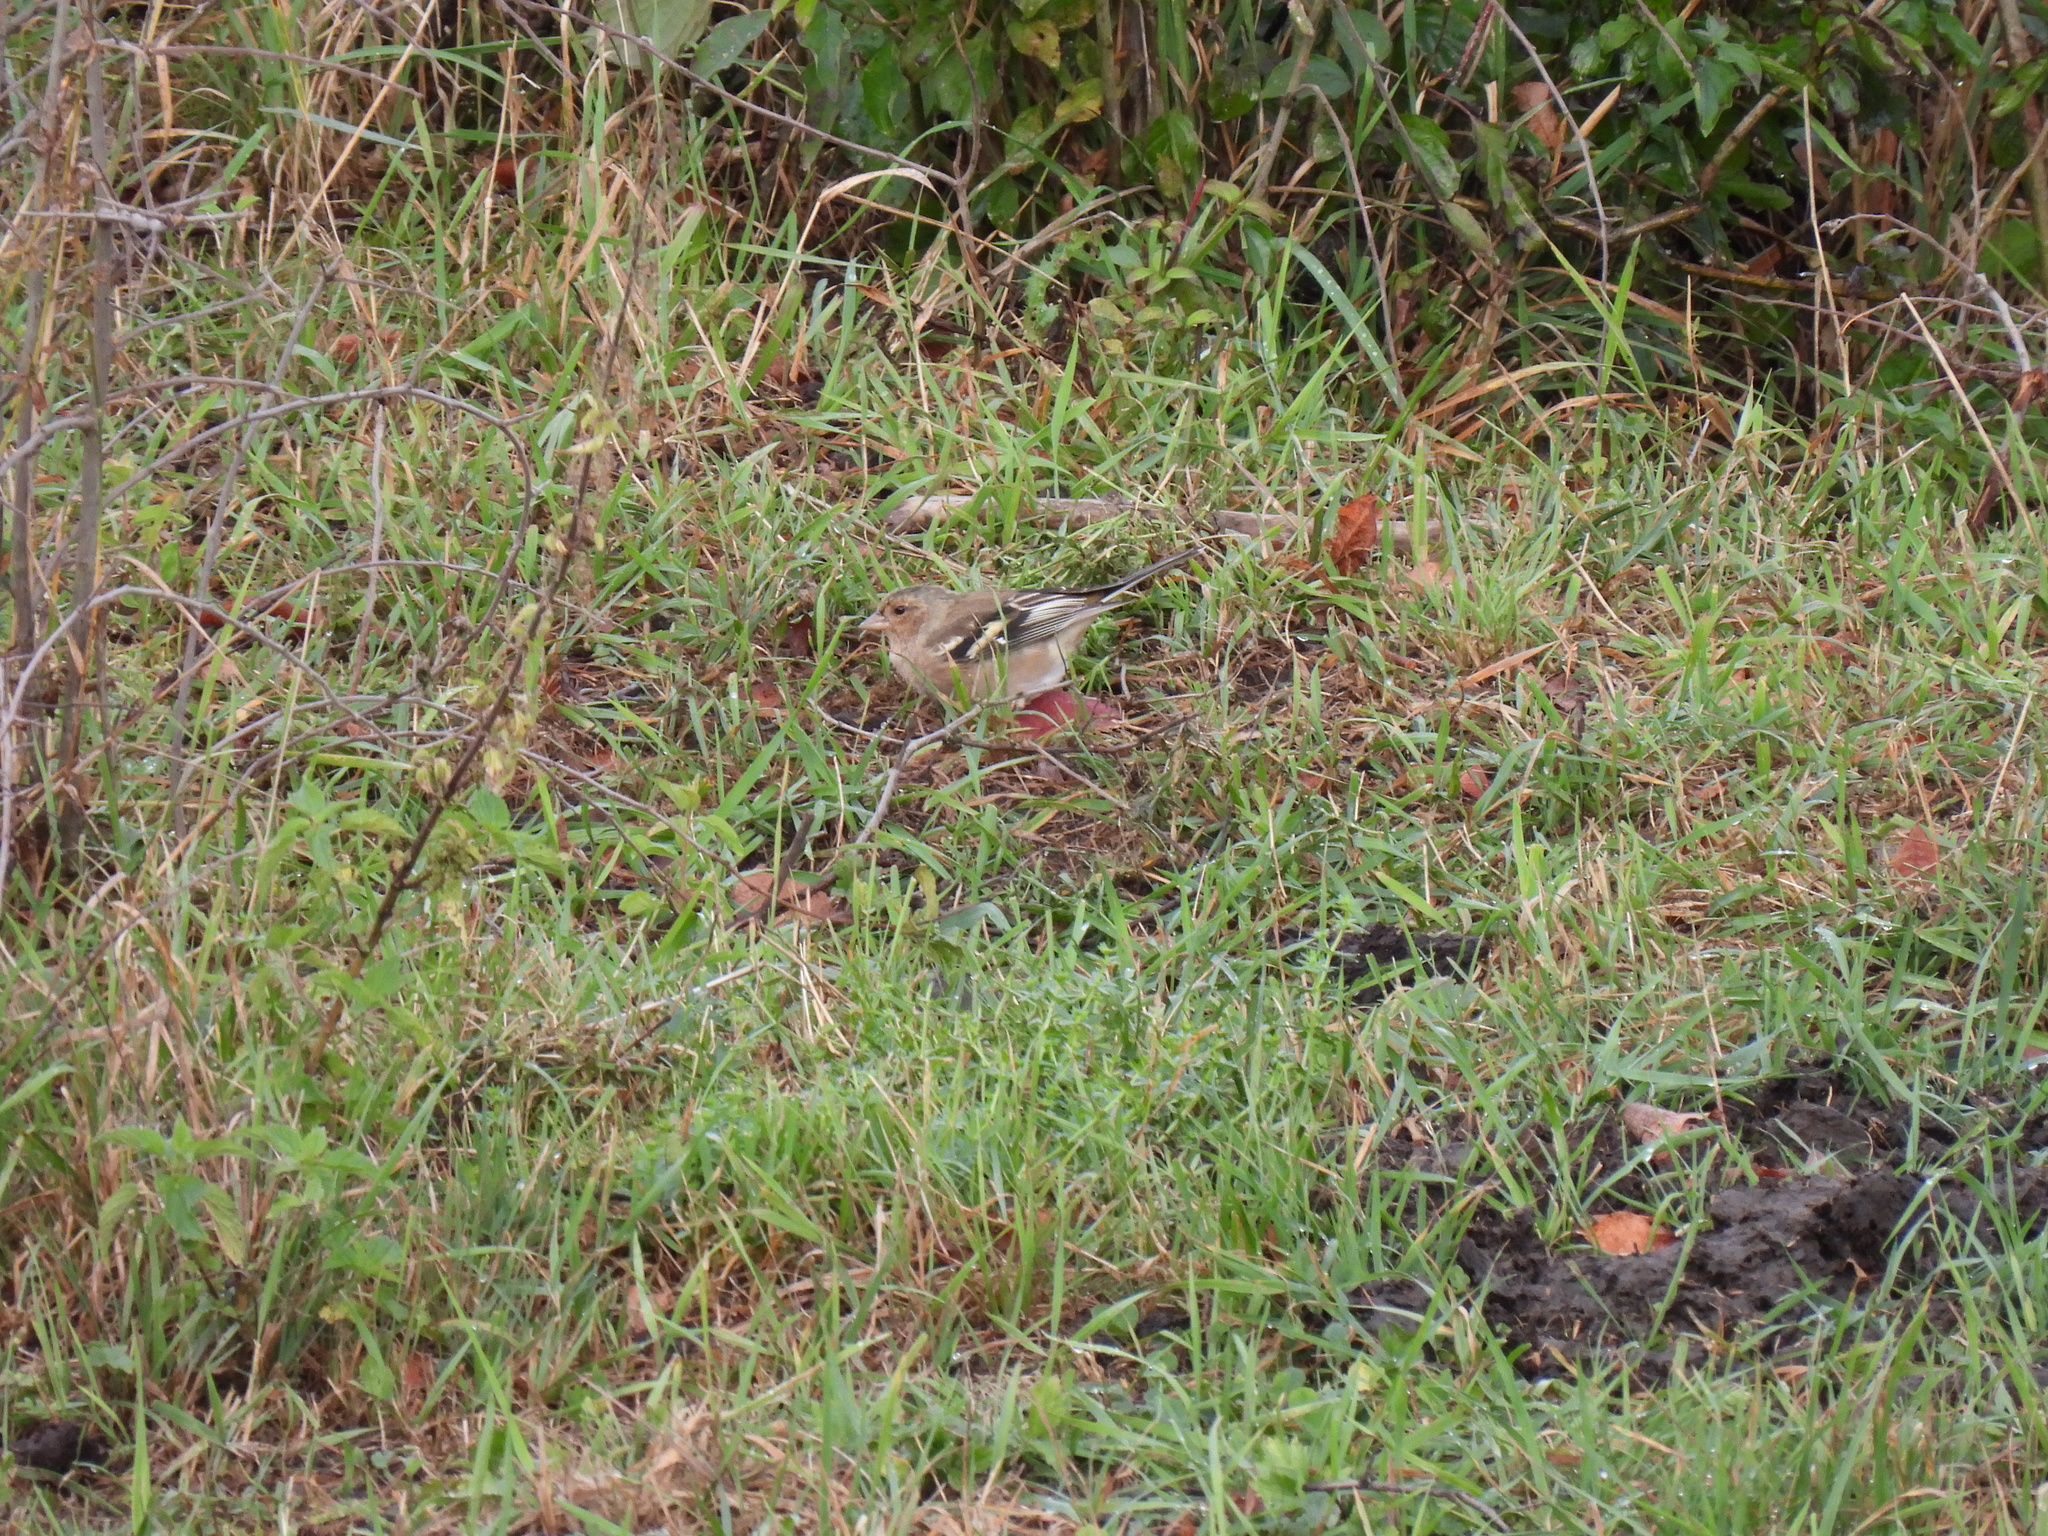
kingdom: Animalia
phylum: Chordata
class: Aves
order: Passeriformes
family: Fringillidae
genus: Fringilla
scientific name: Fringilla coelebs
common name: Common chaffinch
